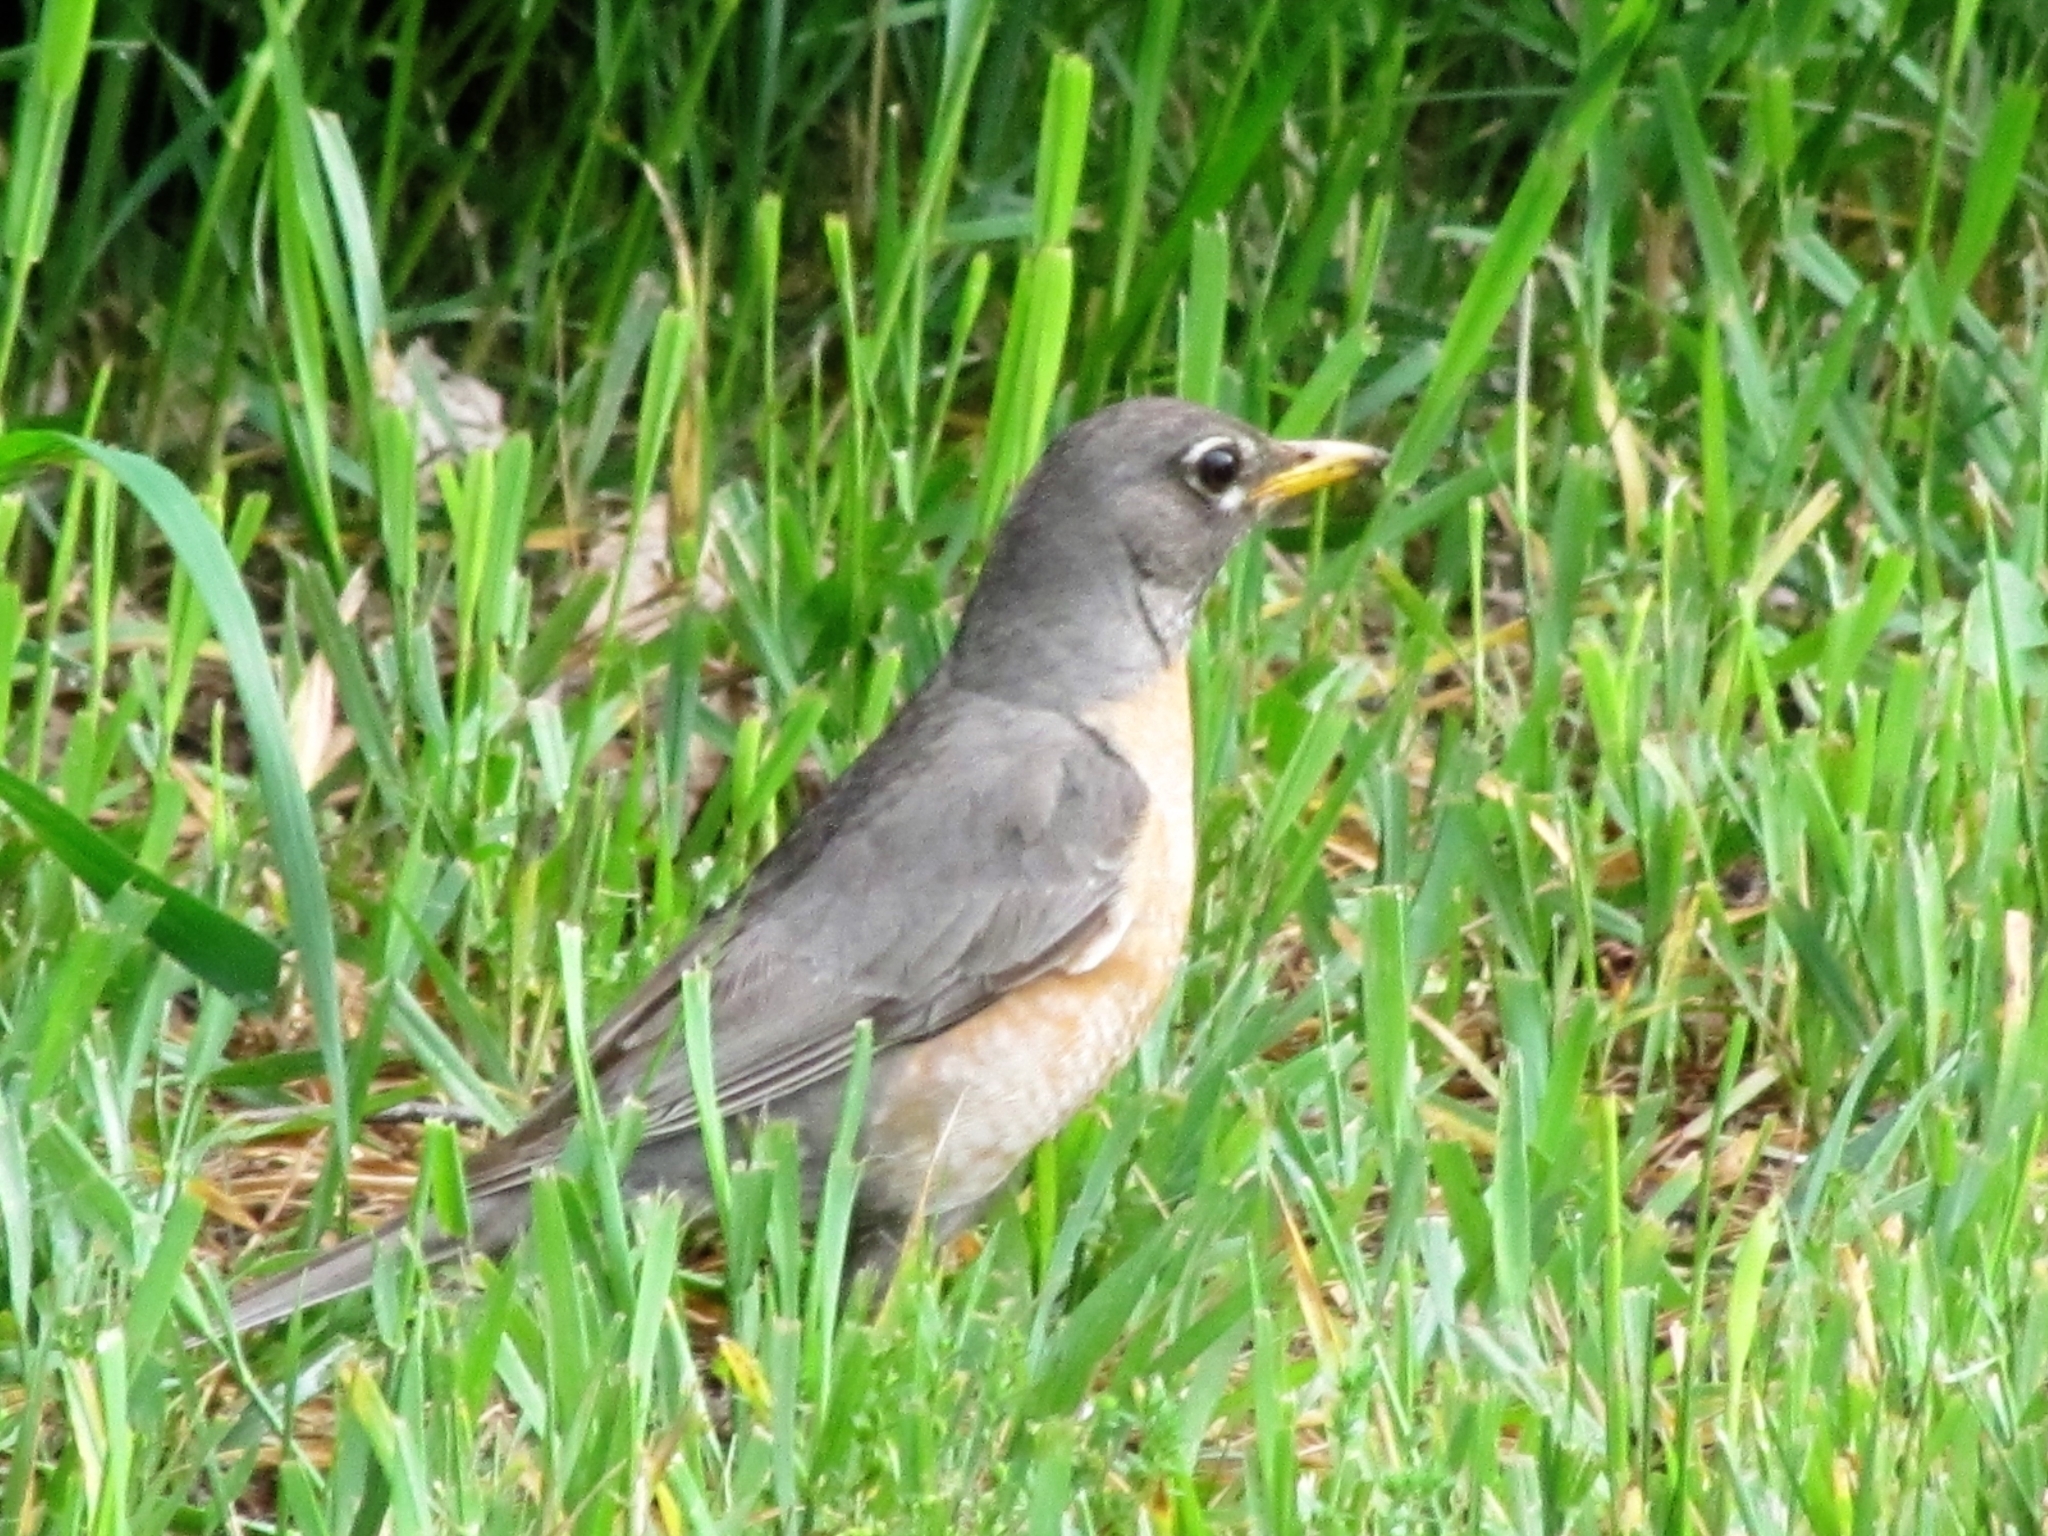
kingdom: Animalia
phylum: Chordata
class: Aves
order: Passeriformes
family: Turdidae
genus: Turdus
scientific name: Turdus migratorius
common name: American robin
